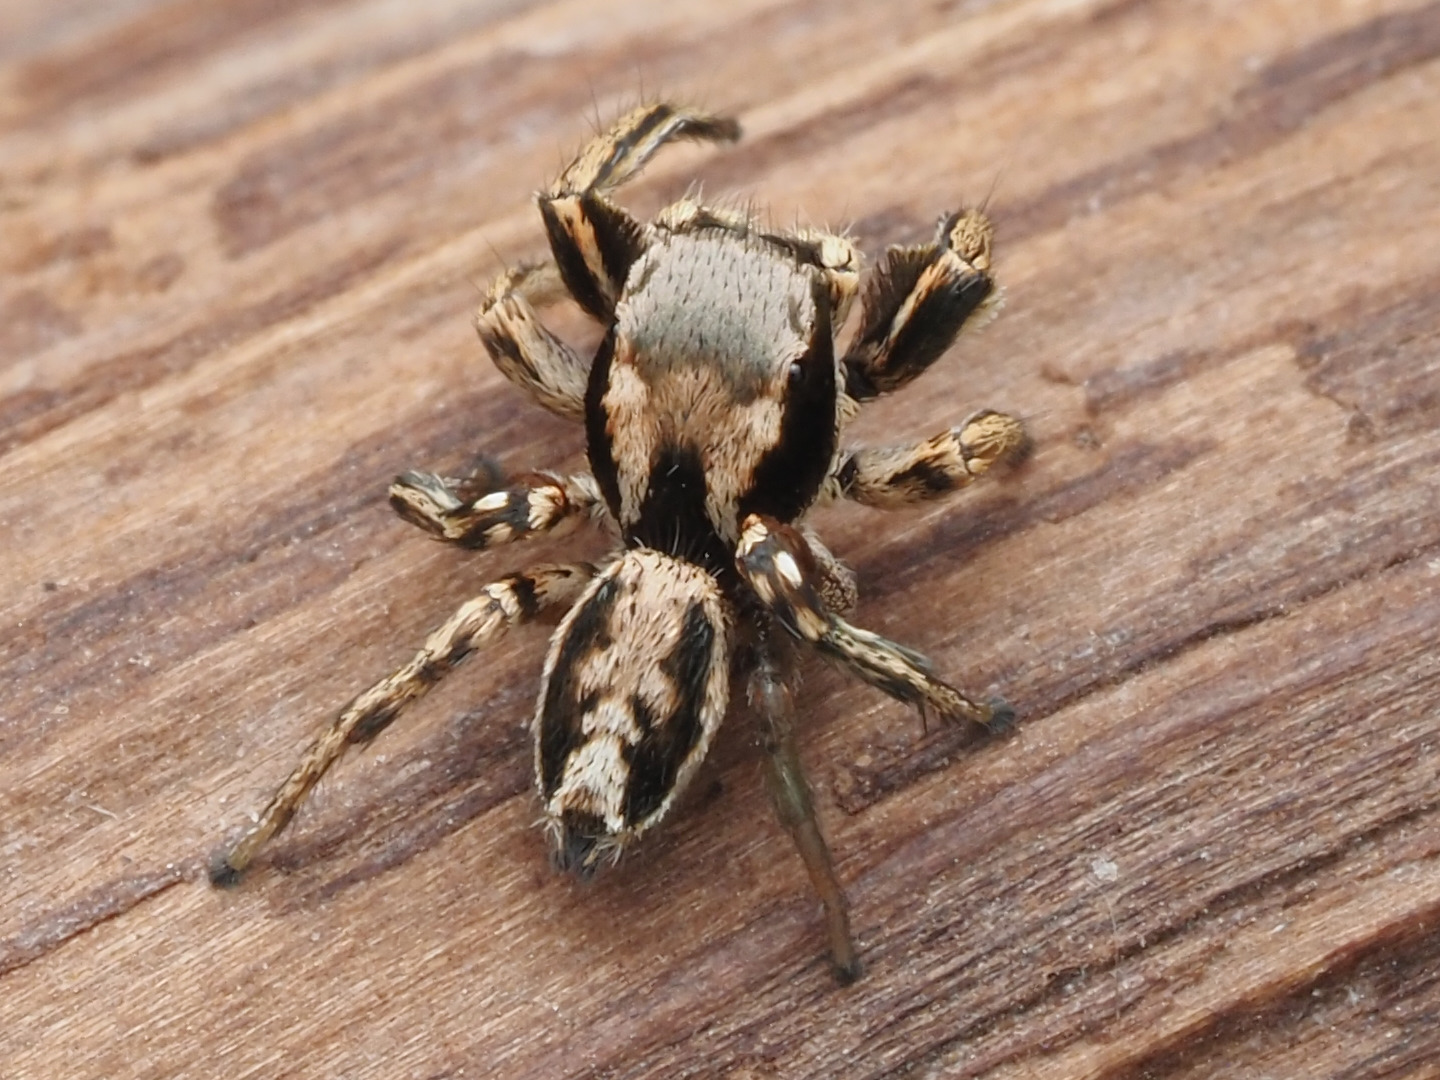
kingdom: Animalia
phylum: Arthropoda
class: Arachnida
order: Araneae
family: Salticidae
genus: Habronattus
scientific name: Habronattus mexicanus
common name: Jumping spiders
